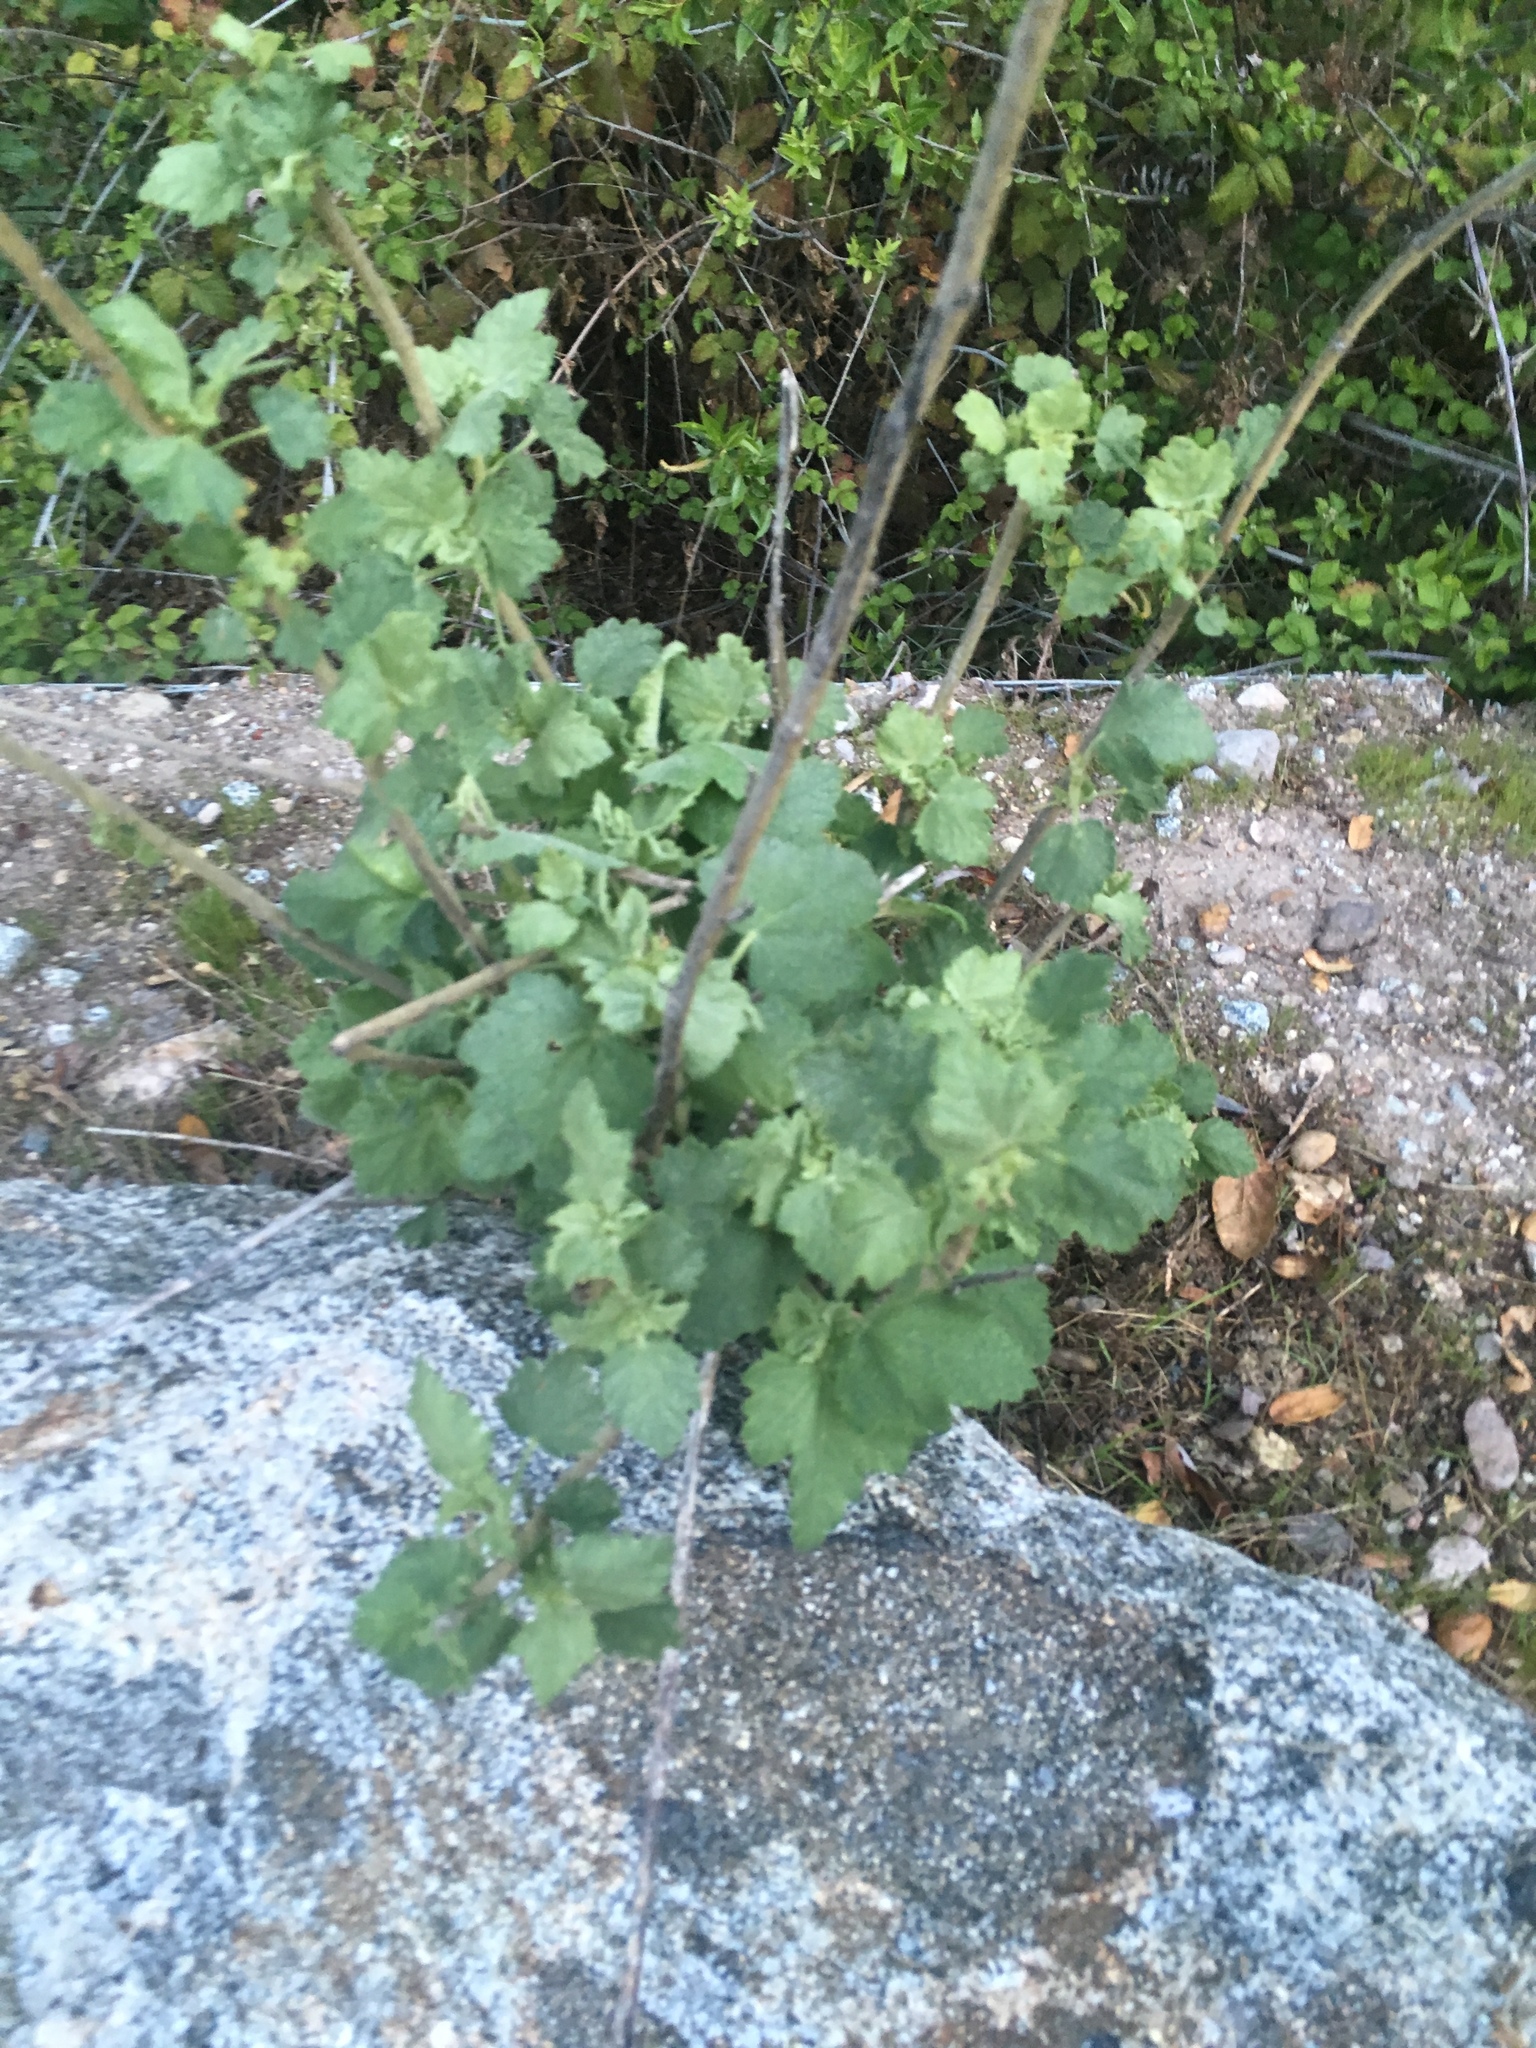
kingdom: Plantae
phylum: Tracheophyta
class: Magnoliopsida
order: Malvales
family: Malvaceae
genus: Malacothamnus
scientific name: Malacothamnus aboriginum
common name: Indian valley bush-mallow
